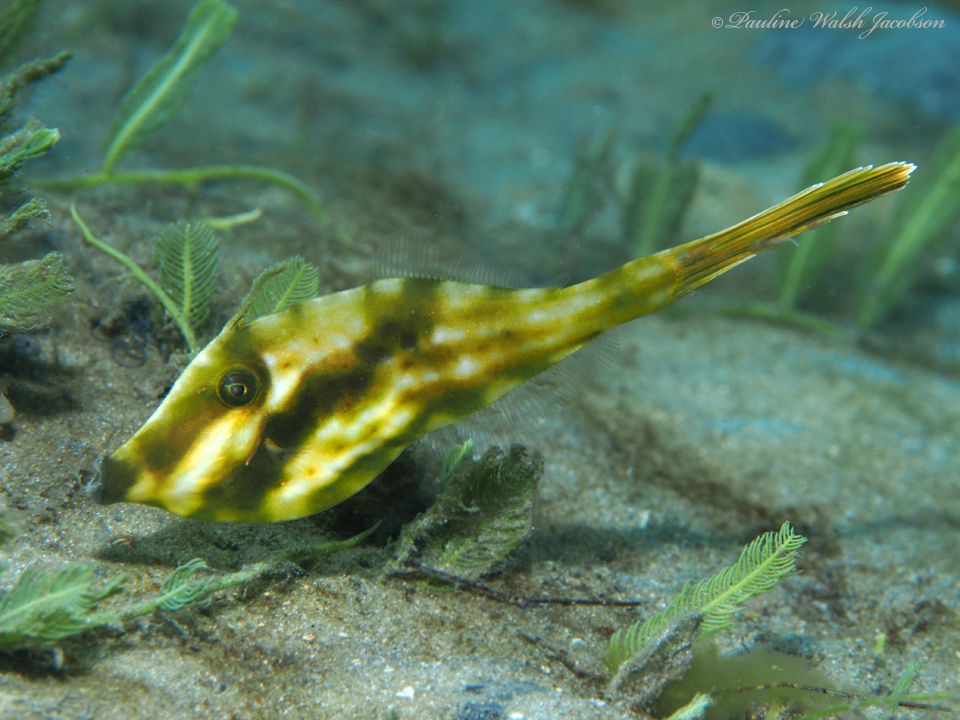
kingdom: Animalia
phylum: Chordata
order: Tetraodontiformes
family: Monacanthidae
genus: Aluterus
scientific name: Aluterus schoepfii
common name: Orange filefish
